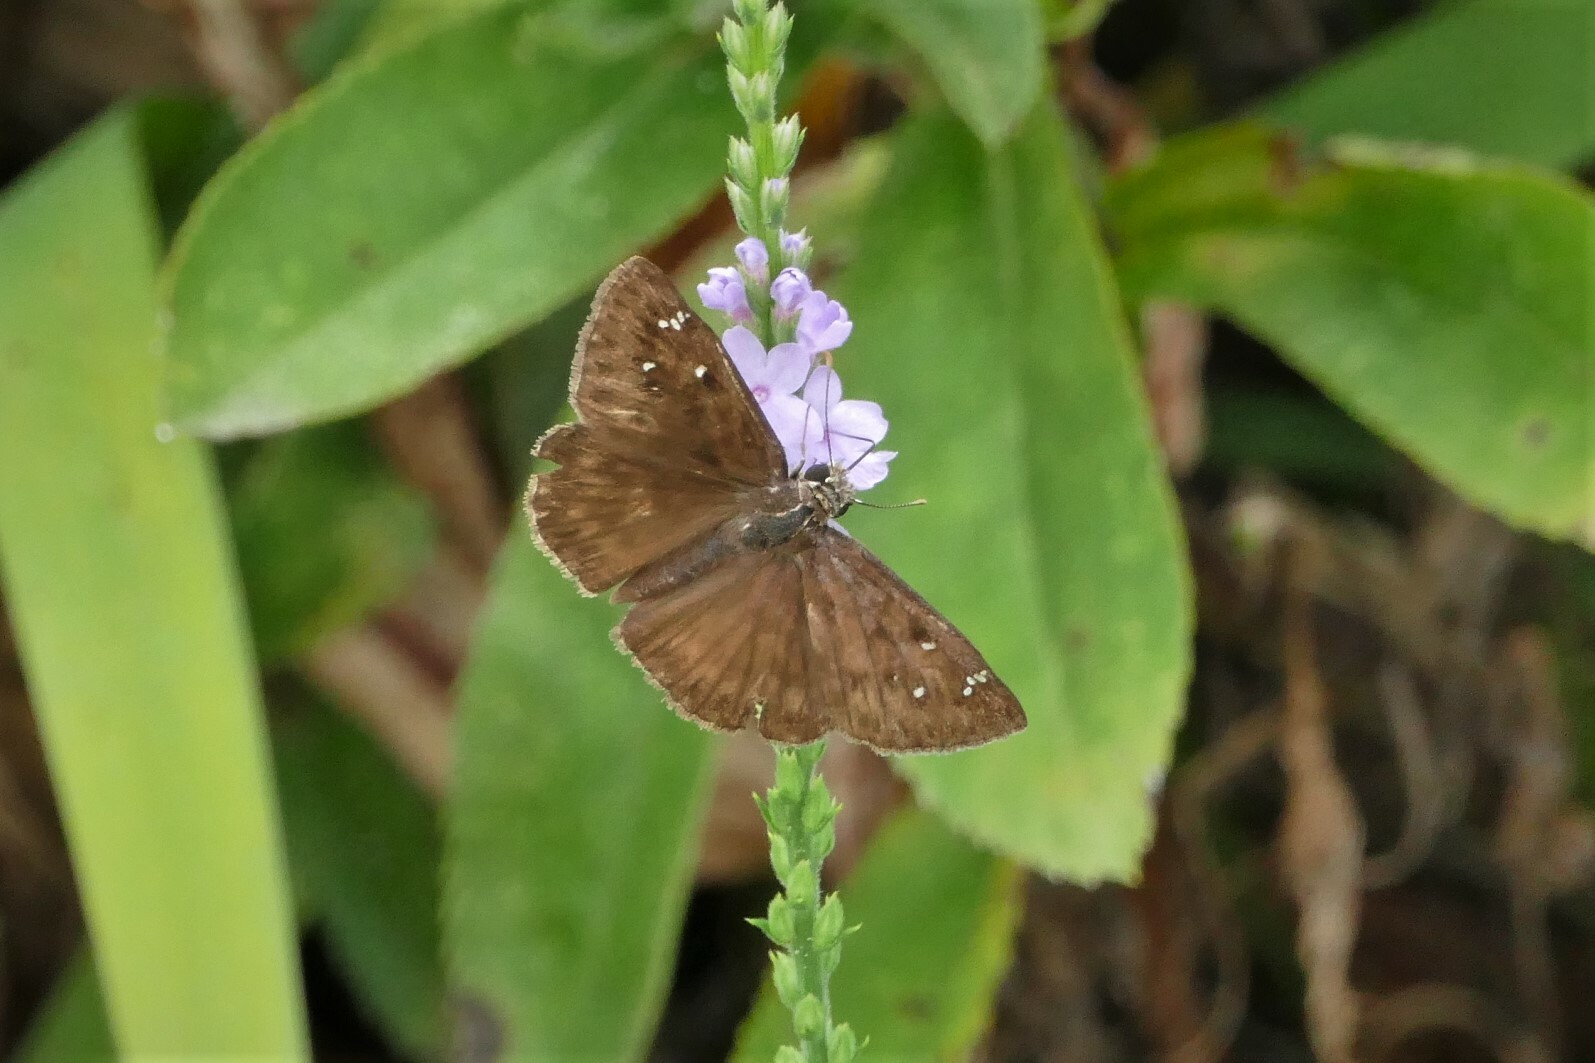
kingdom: Animalia
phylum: Arthropoda
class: Insecta
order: Lepidoptera
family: Hesperiidae
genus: Erynnis
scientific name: Erynnis horatius
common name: Horace's duskywing
